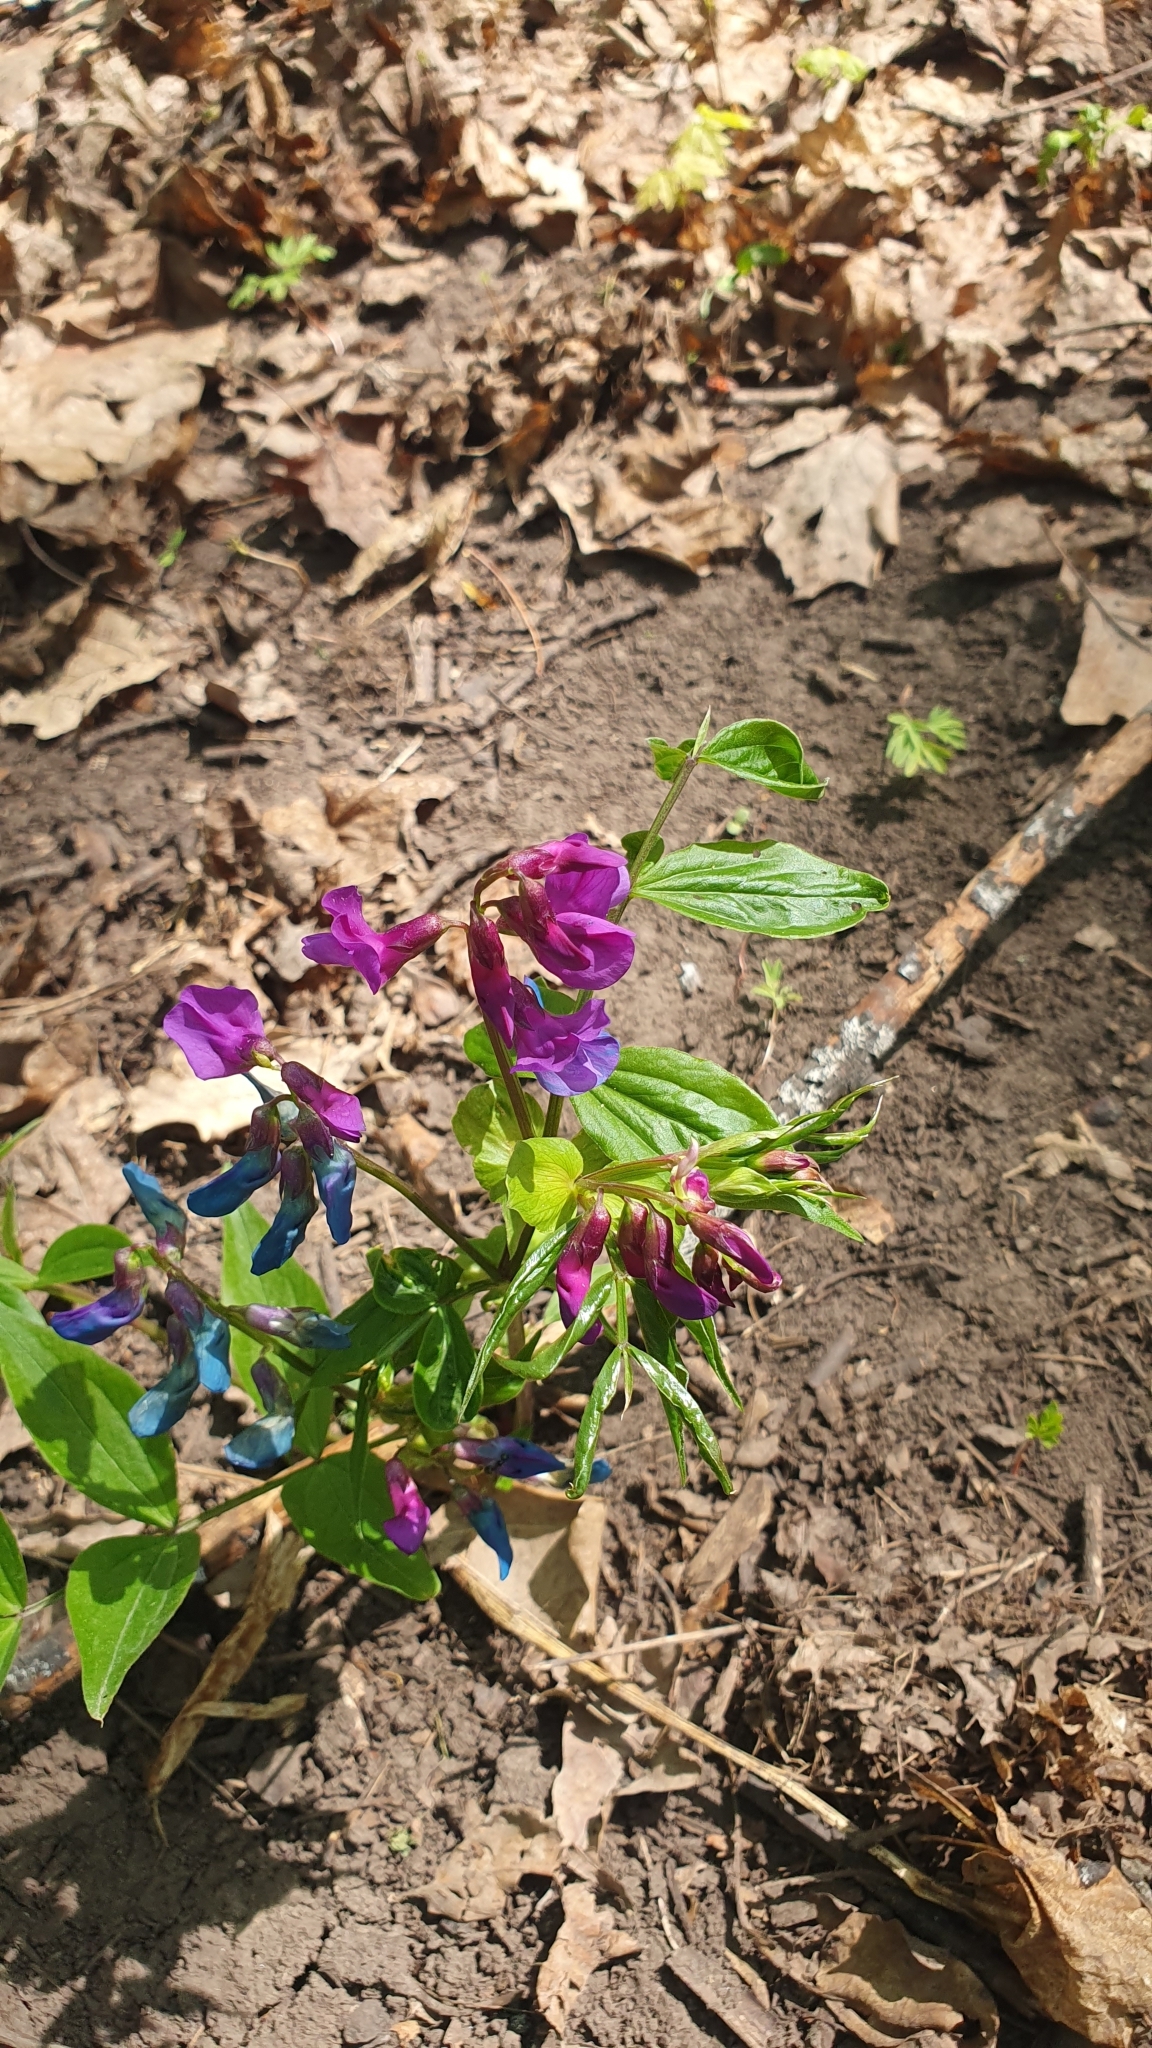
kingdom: Plantae
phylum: Tracheophyta
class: Magnoliopsida
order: Fabales
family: Fabaceae
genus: Lathyrus
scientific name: Lathyrus vernus
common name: Spring pea
